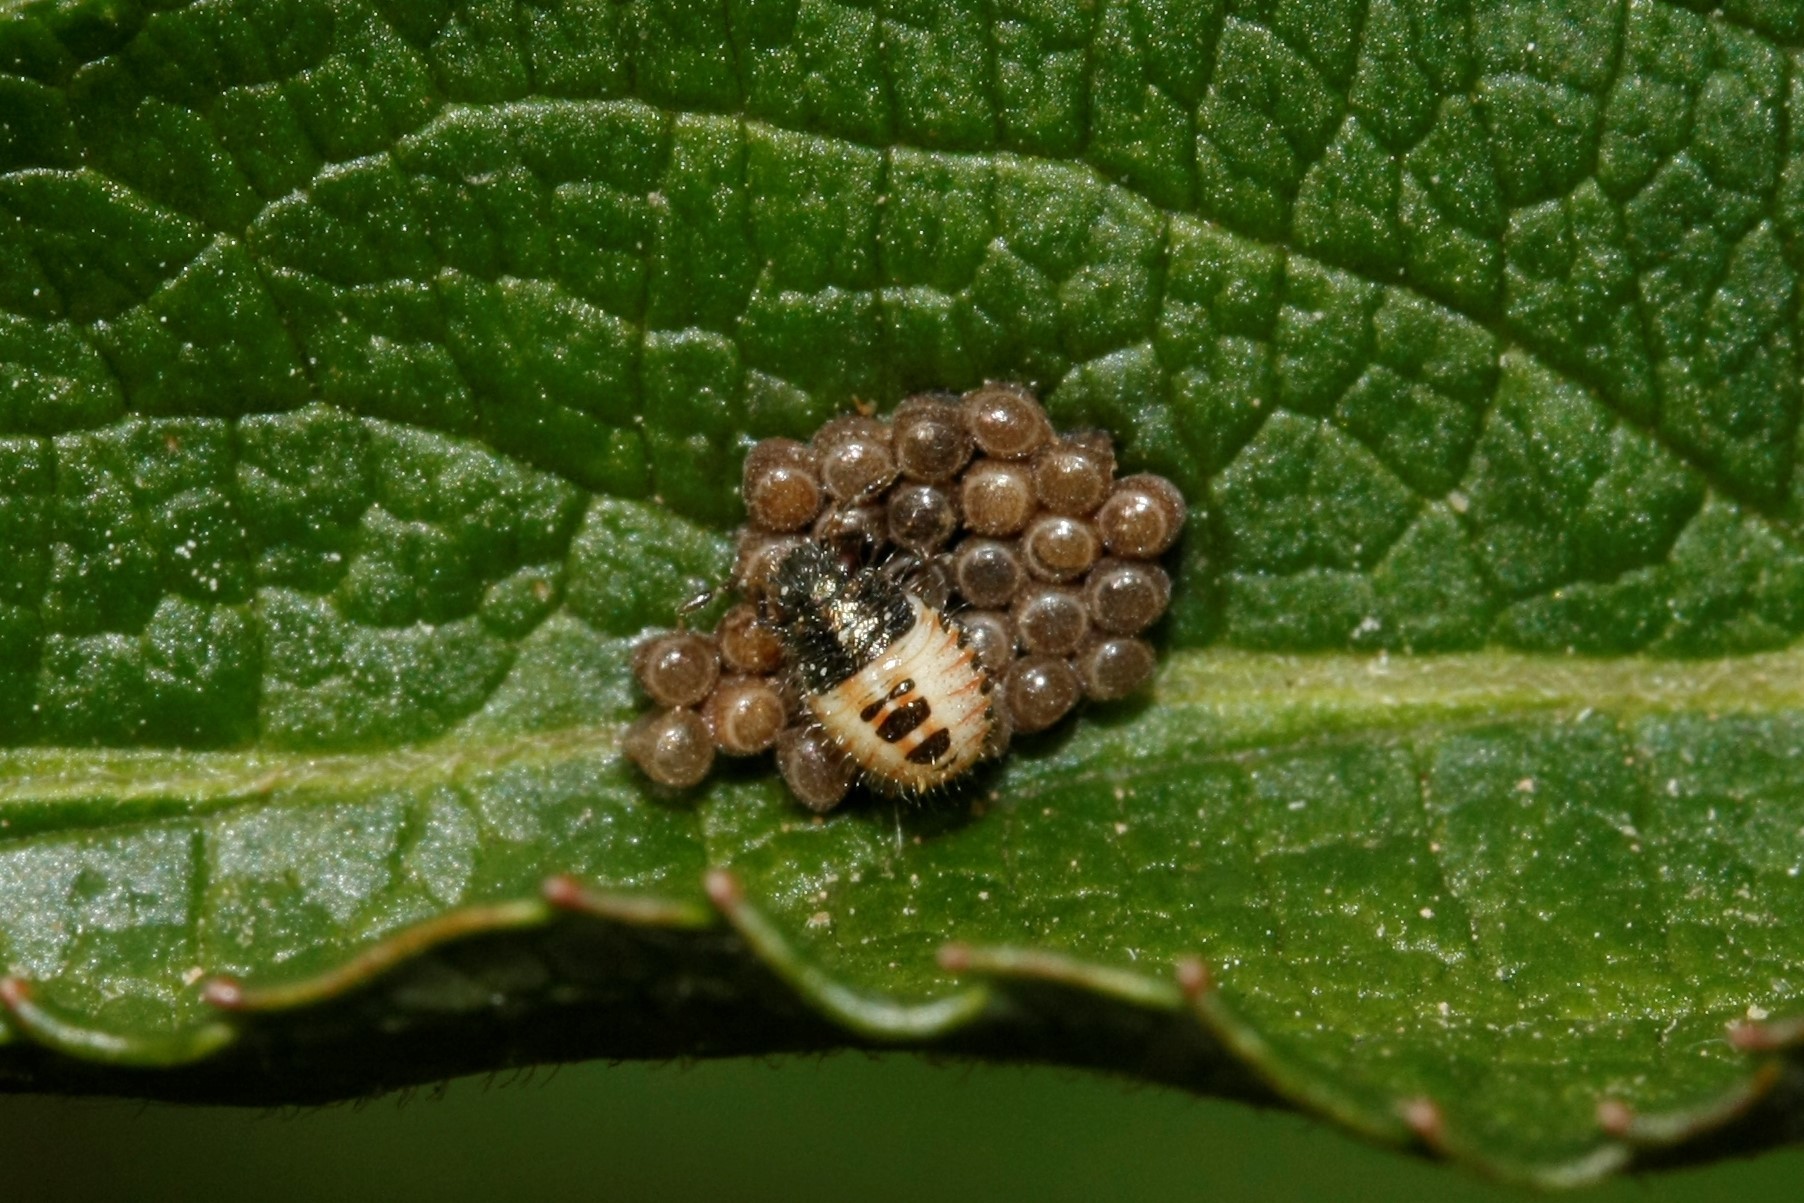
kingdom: Animalia
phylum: Arthropoda
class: Insecta
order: Hemiptera
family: Pentatomidae
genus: Dolycoris
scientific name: Dolycoris baccarum
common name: Sloe bug
